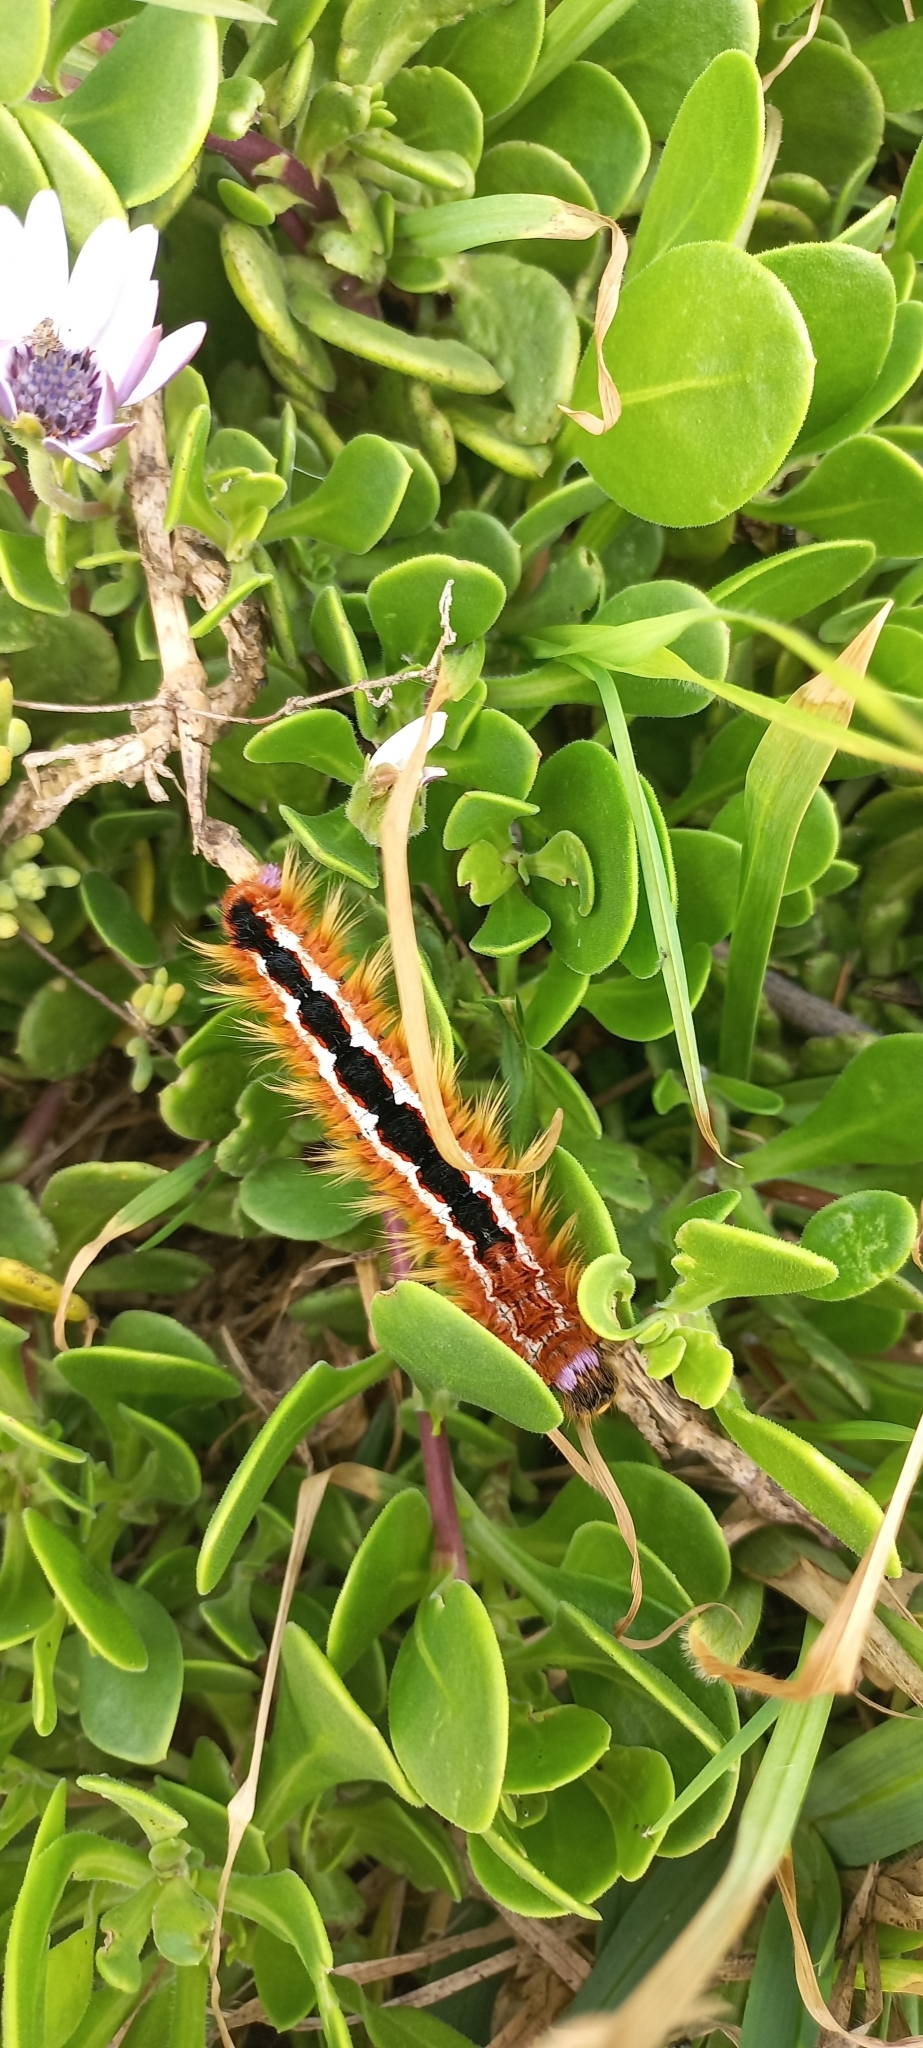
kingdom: Animalia
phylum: Arthropoda
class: Insecta
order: Lepidoptera
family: Lasiocampidae
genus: Eutricha
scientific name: Eutricha capensis
